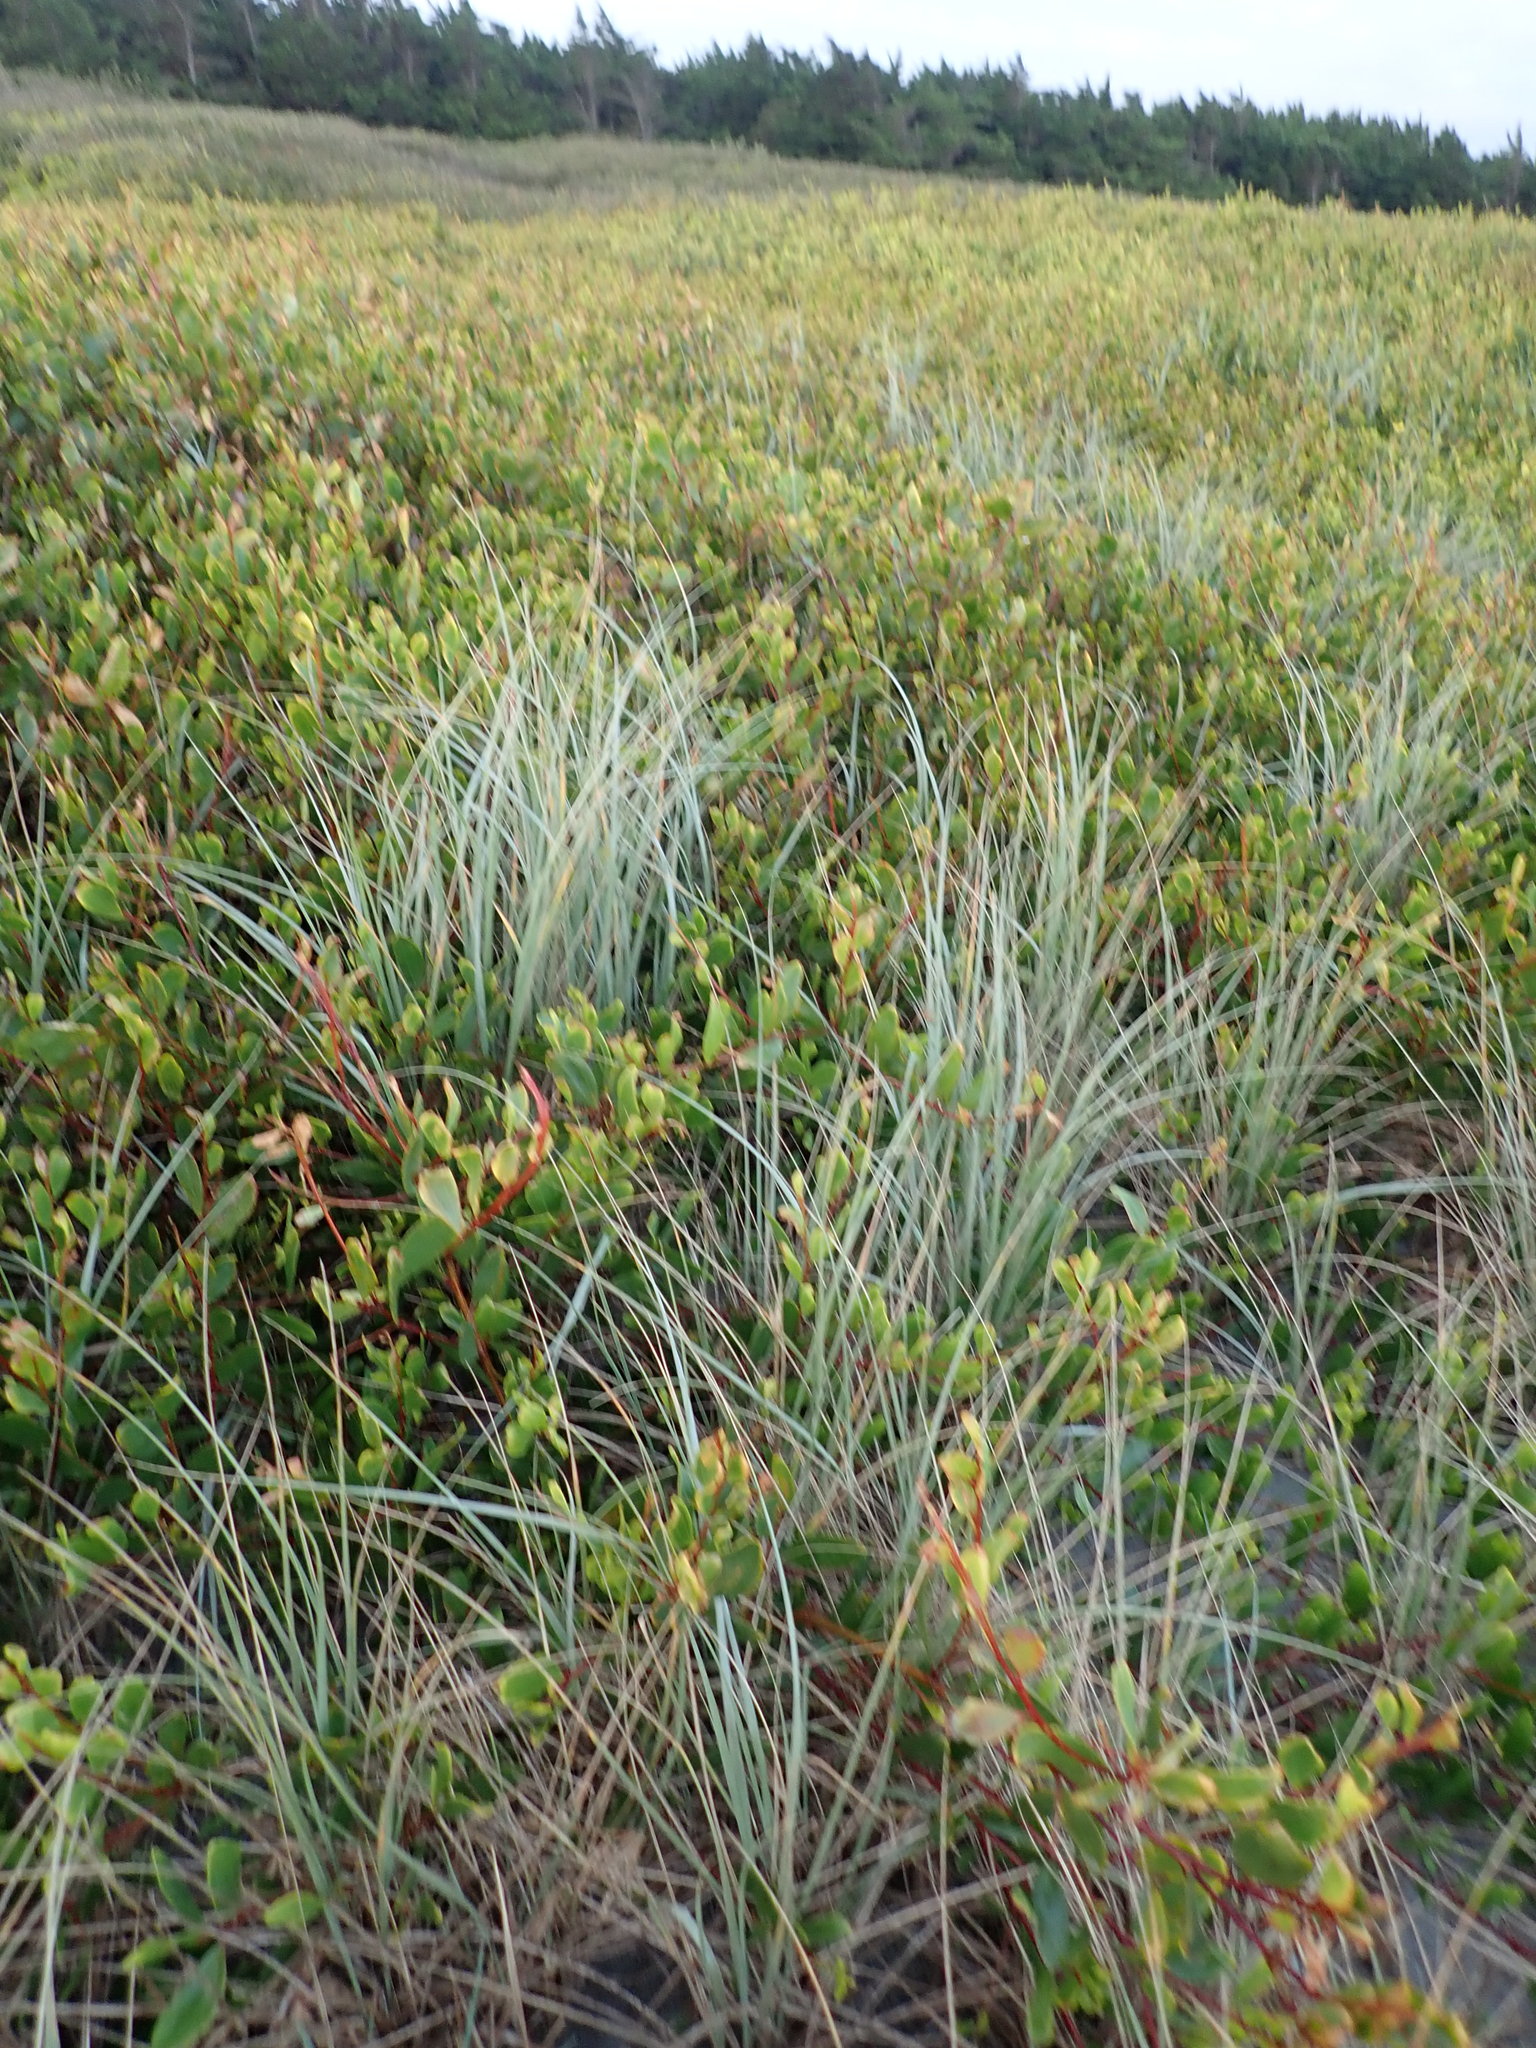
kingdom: Plantae
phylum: Tracheophyta
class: Liliopsida
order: Poales
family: Poaceae
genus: Spinifex
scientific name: Spinifex sericeus
